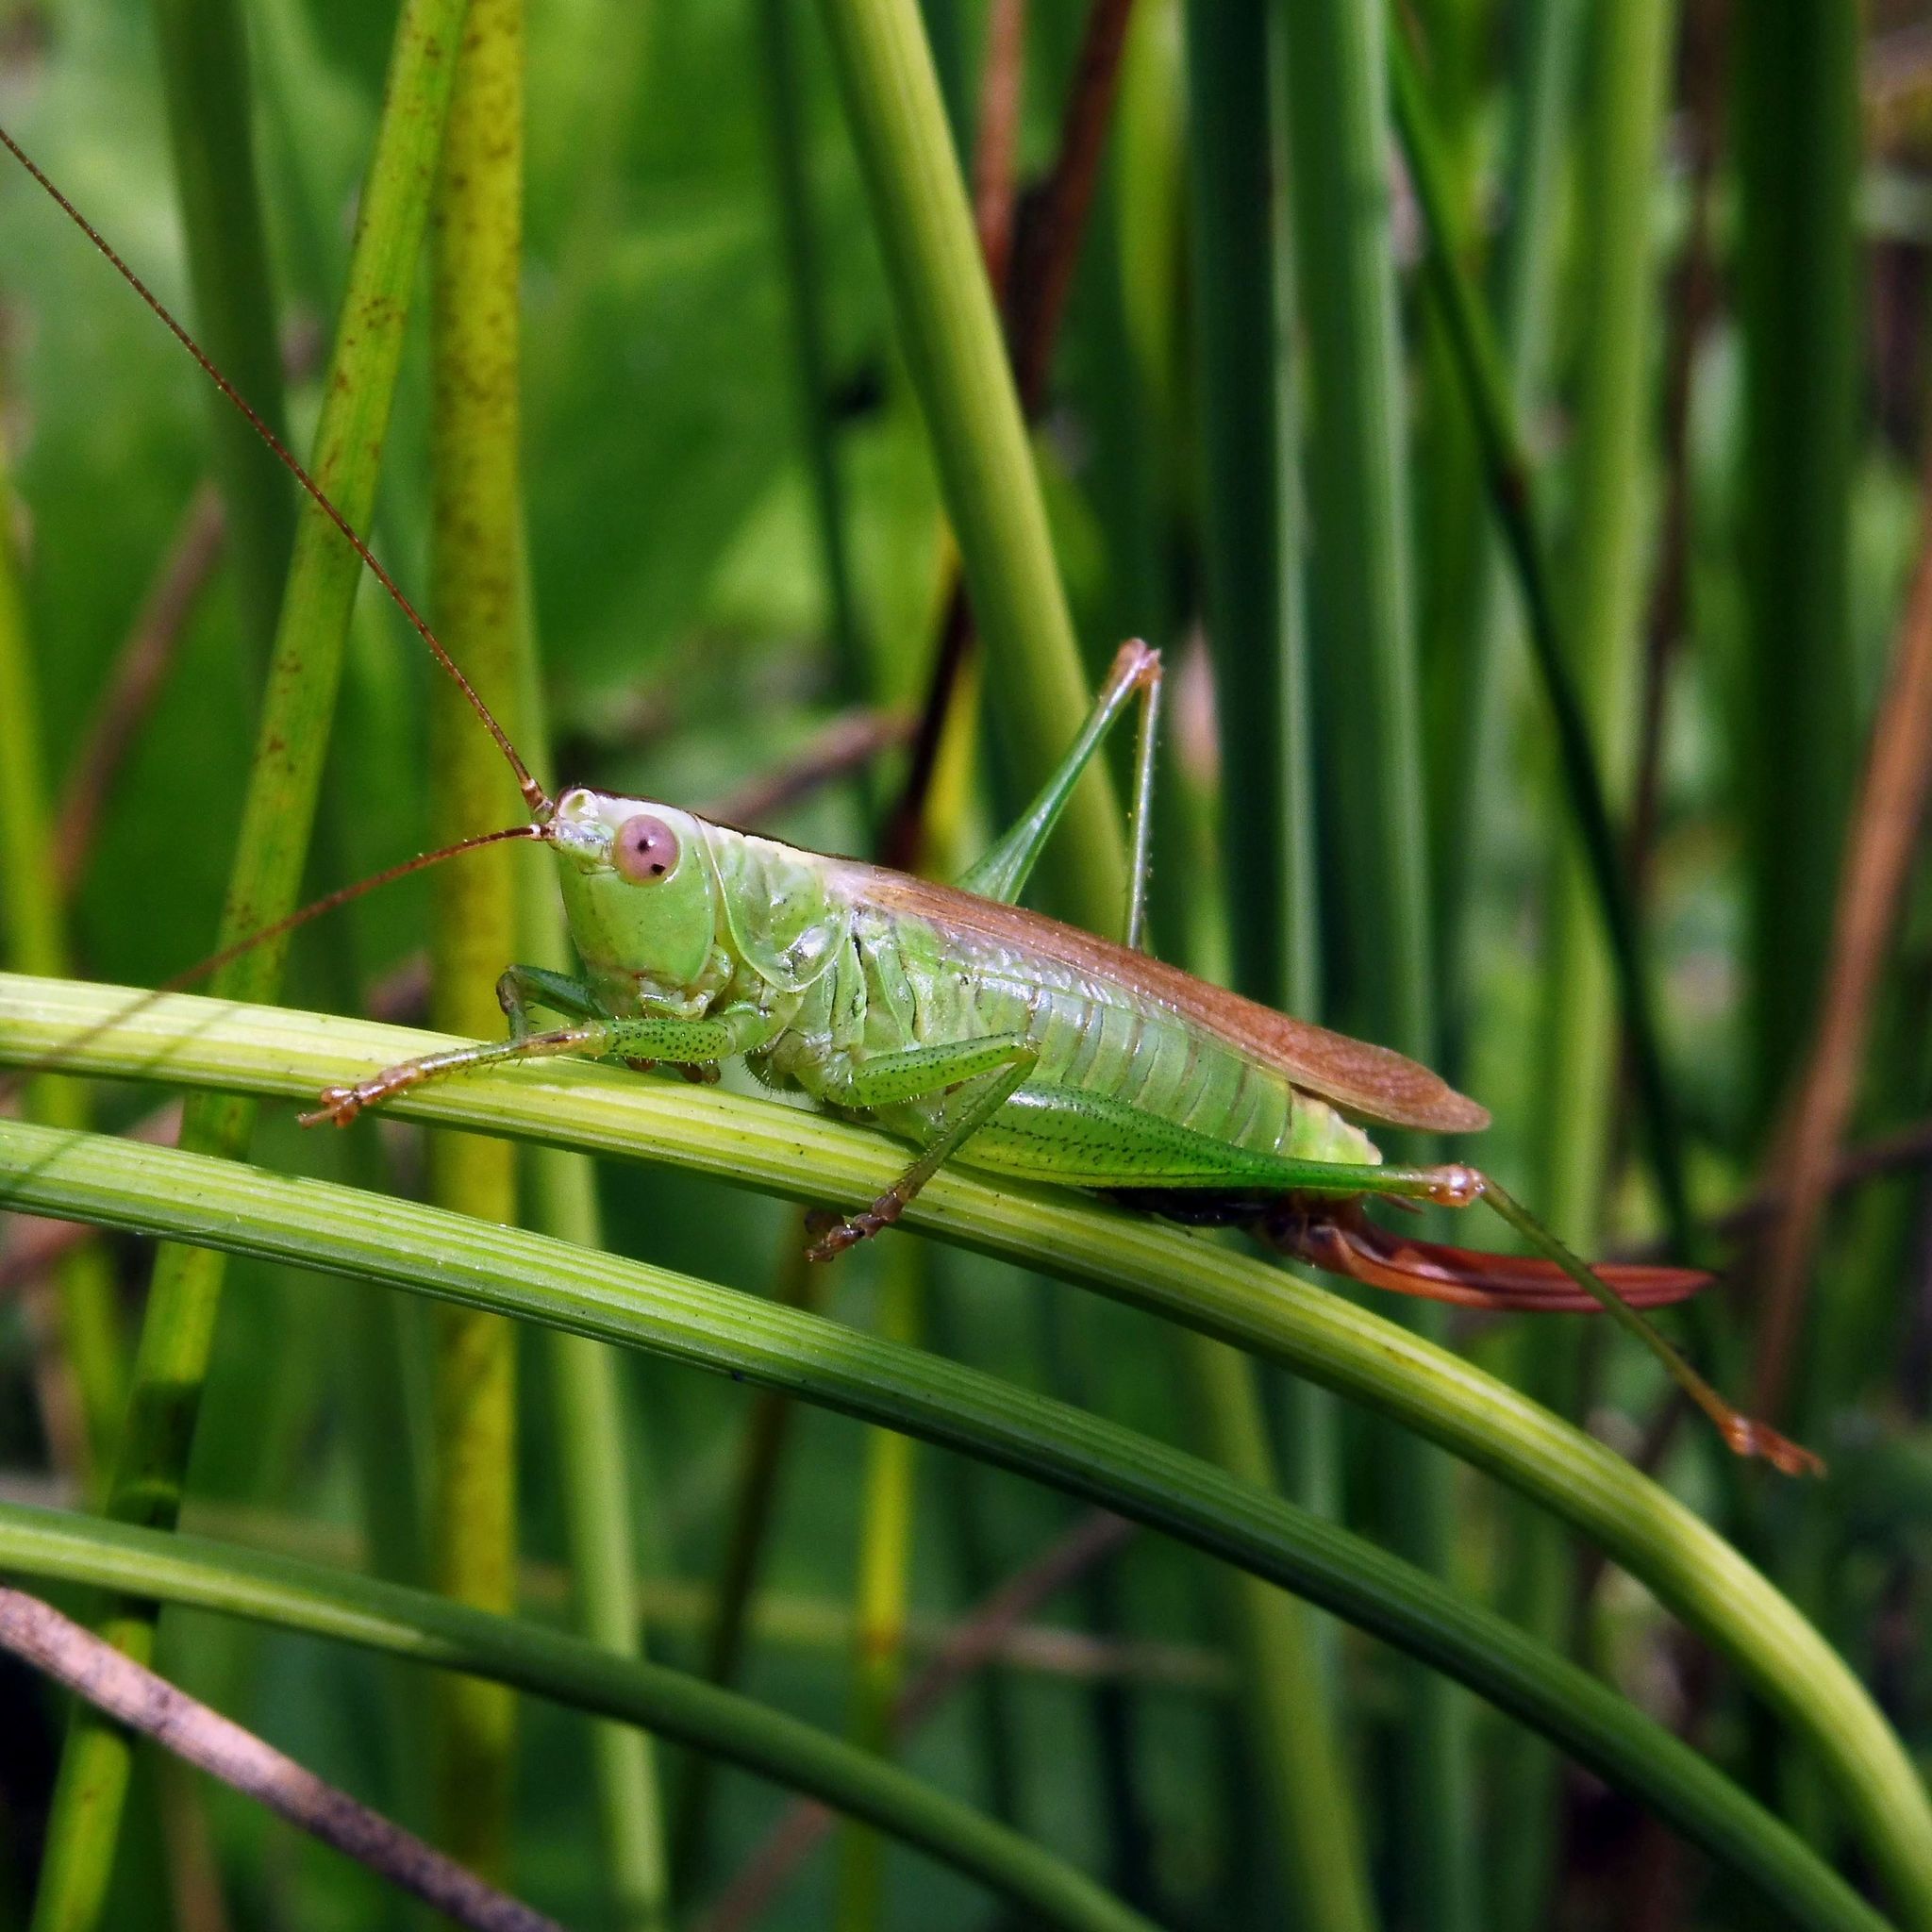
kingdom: Animalia
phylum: Arthropoda
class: Insecta
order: Orthoptera
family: Tettigoniidae
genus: Conocephalus
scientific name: Conocephalus fuscus
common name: Long-winged conehead
